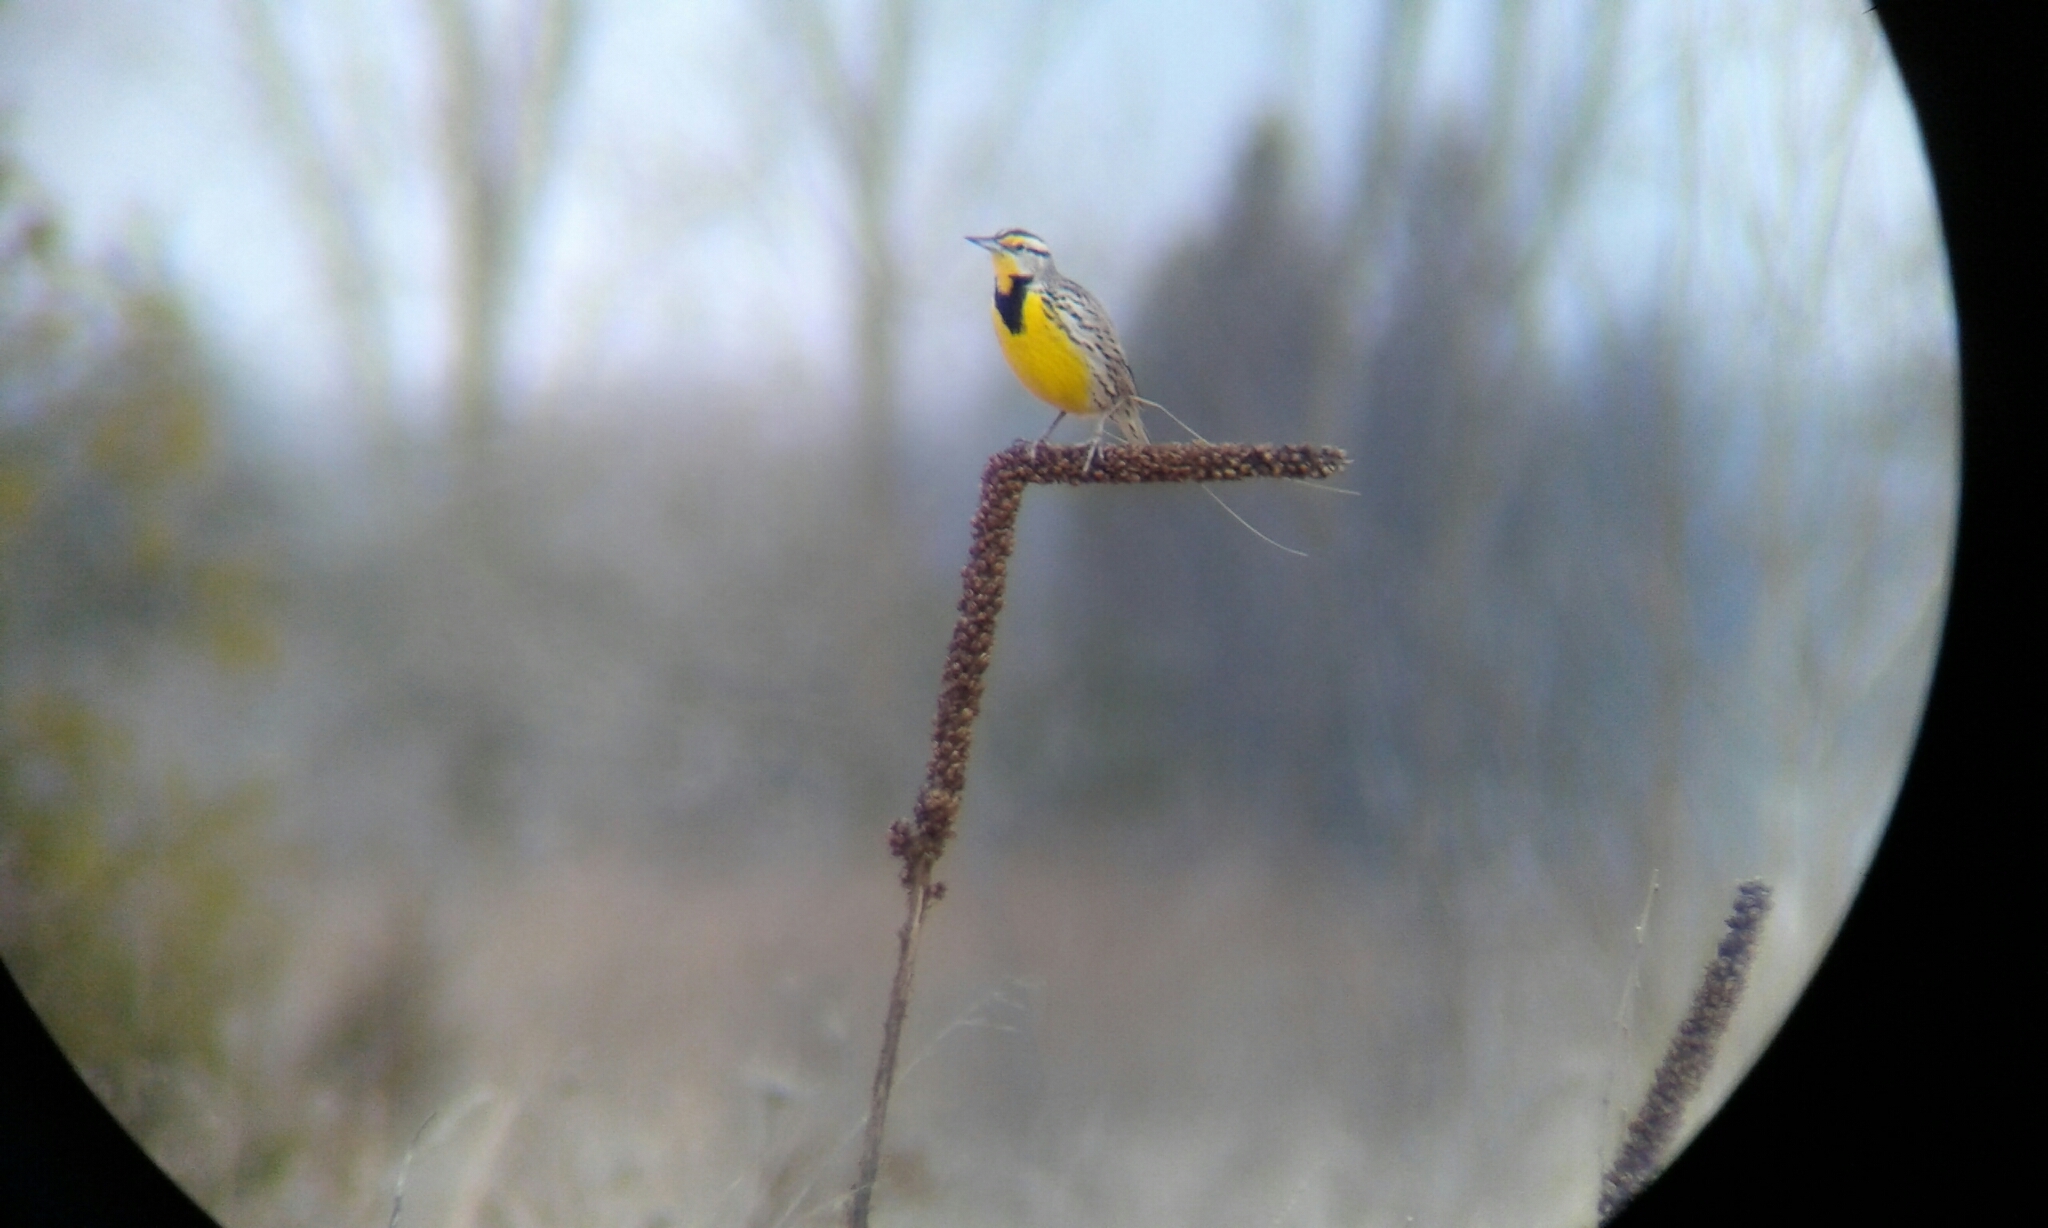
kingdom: Animalia
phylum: Chordata
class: Aves
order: Passeriformes
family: Icteridae
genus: Sturnella
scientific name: Sturnella magna
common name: Eastern meadowlark
